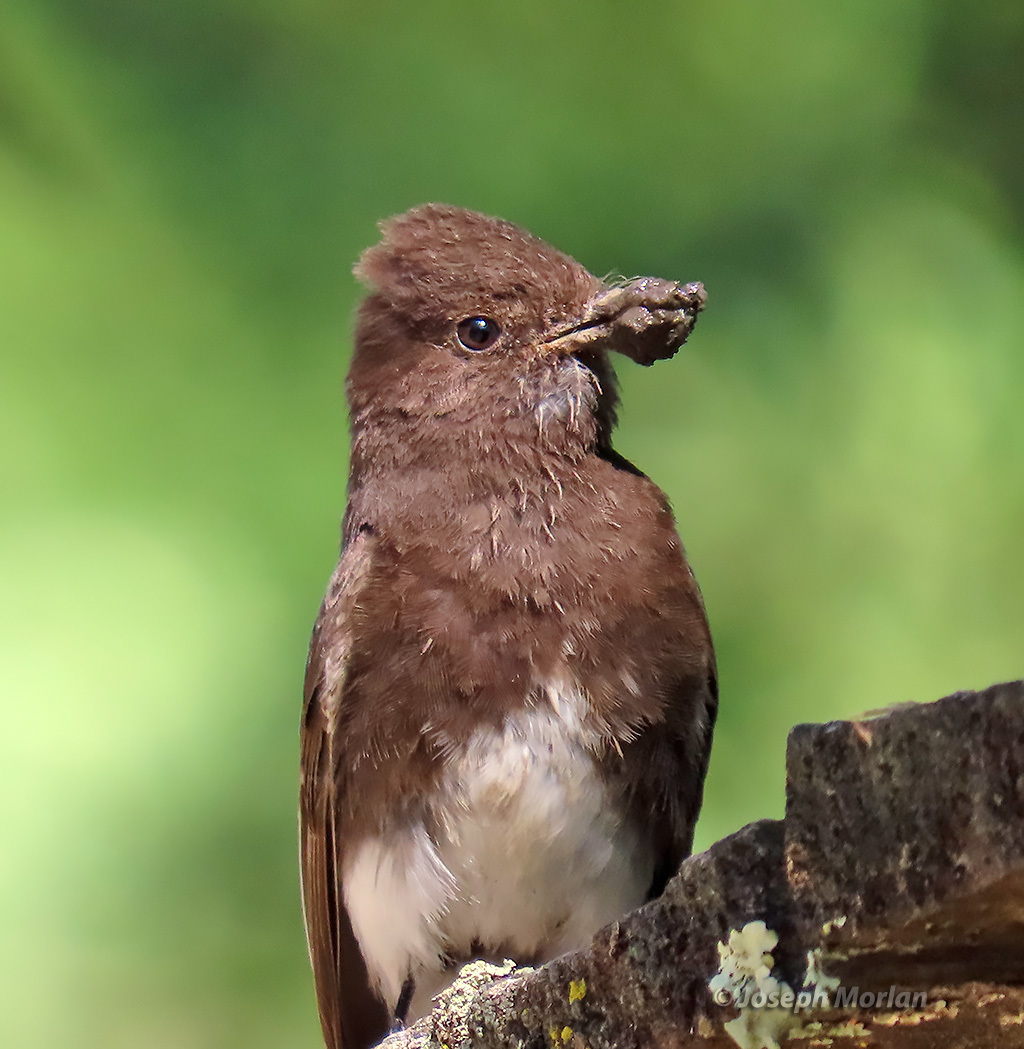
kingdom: Animalia
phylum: Chordata
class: Aves
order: Passeriformes
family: Tyrannidae
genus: Sayornis
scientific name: Sayornis nigricans
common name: Black phoebe
